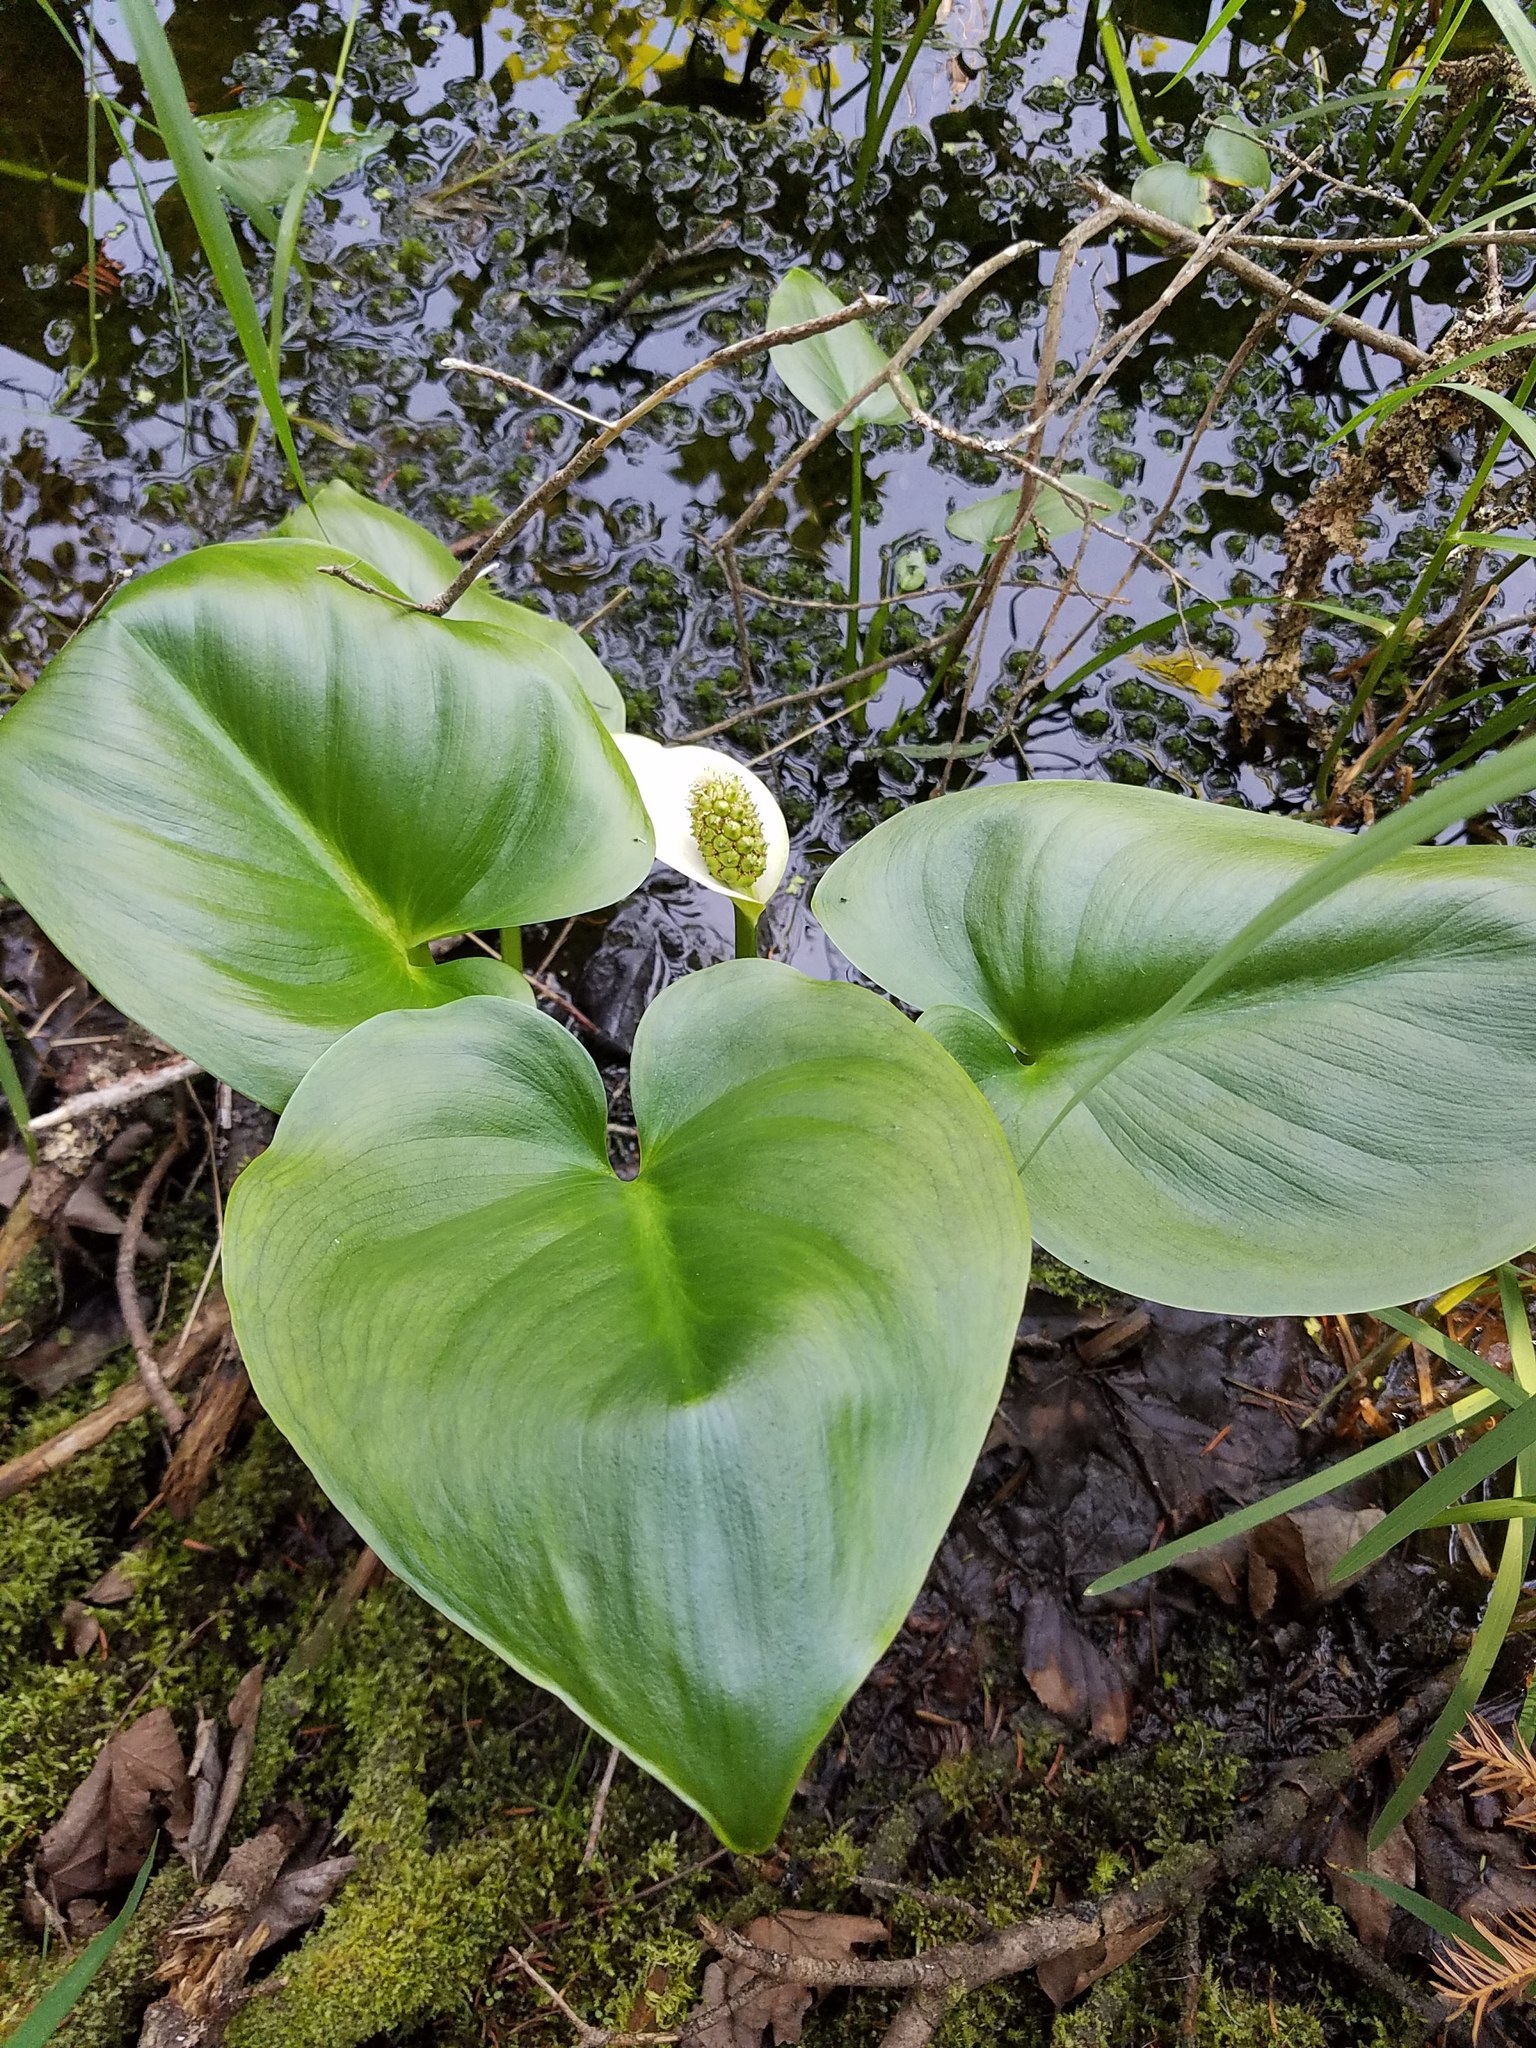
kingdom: Plantae
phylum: Tracheophyta
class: Liliopsida
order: Alismatales
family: Araceae
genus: Calla
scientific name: Calla palustris
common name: Bog arum
